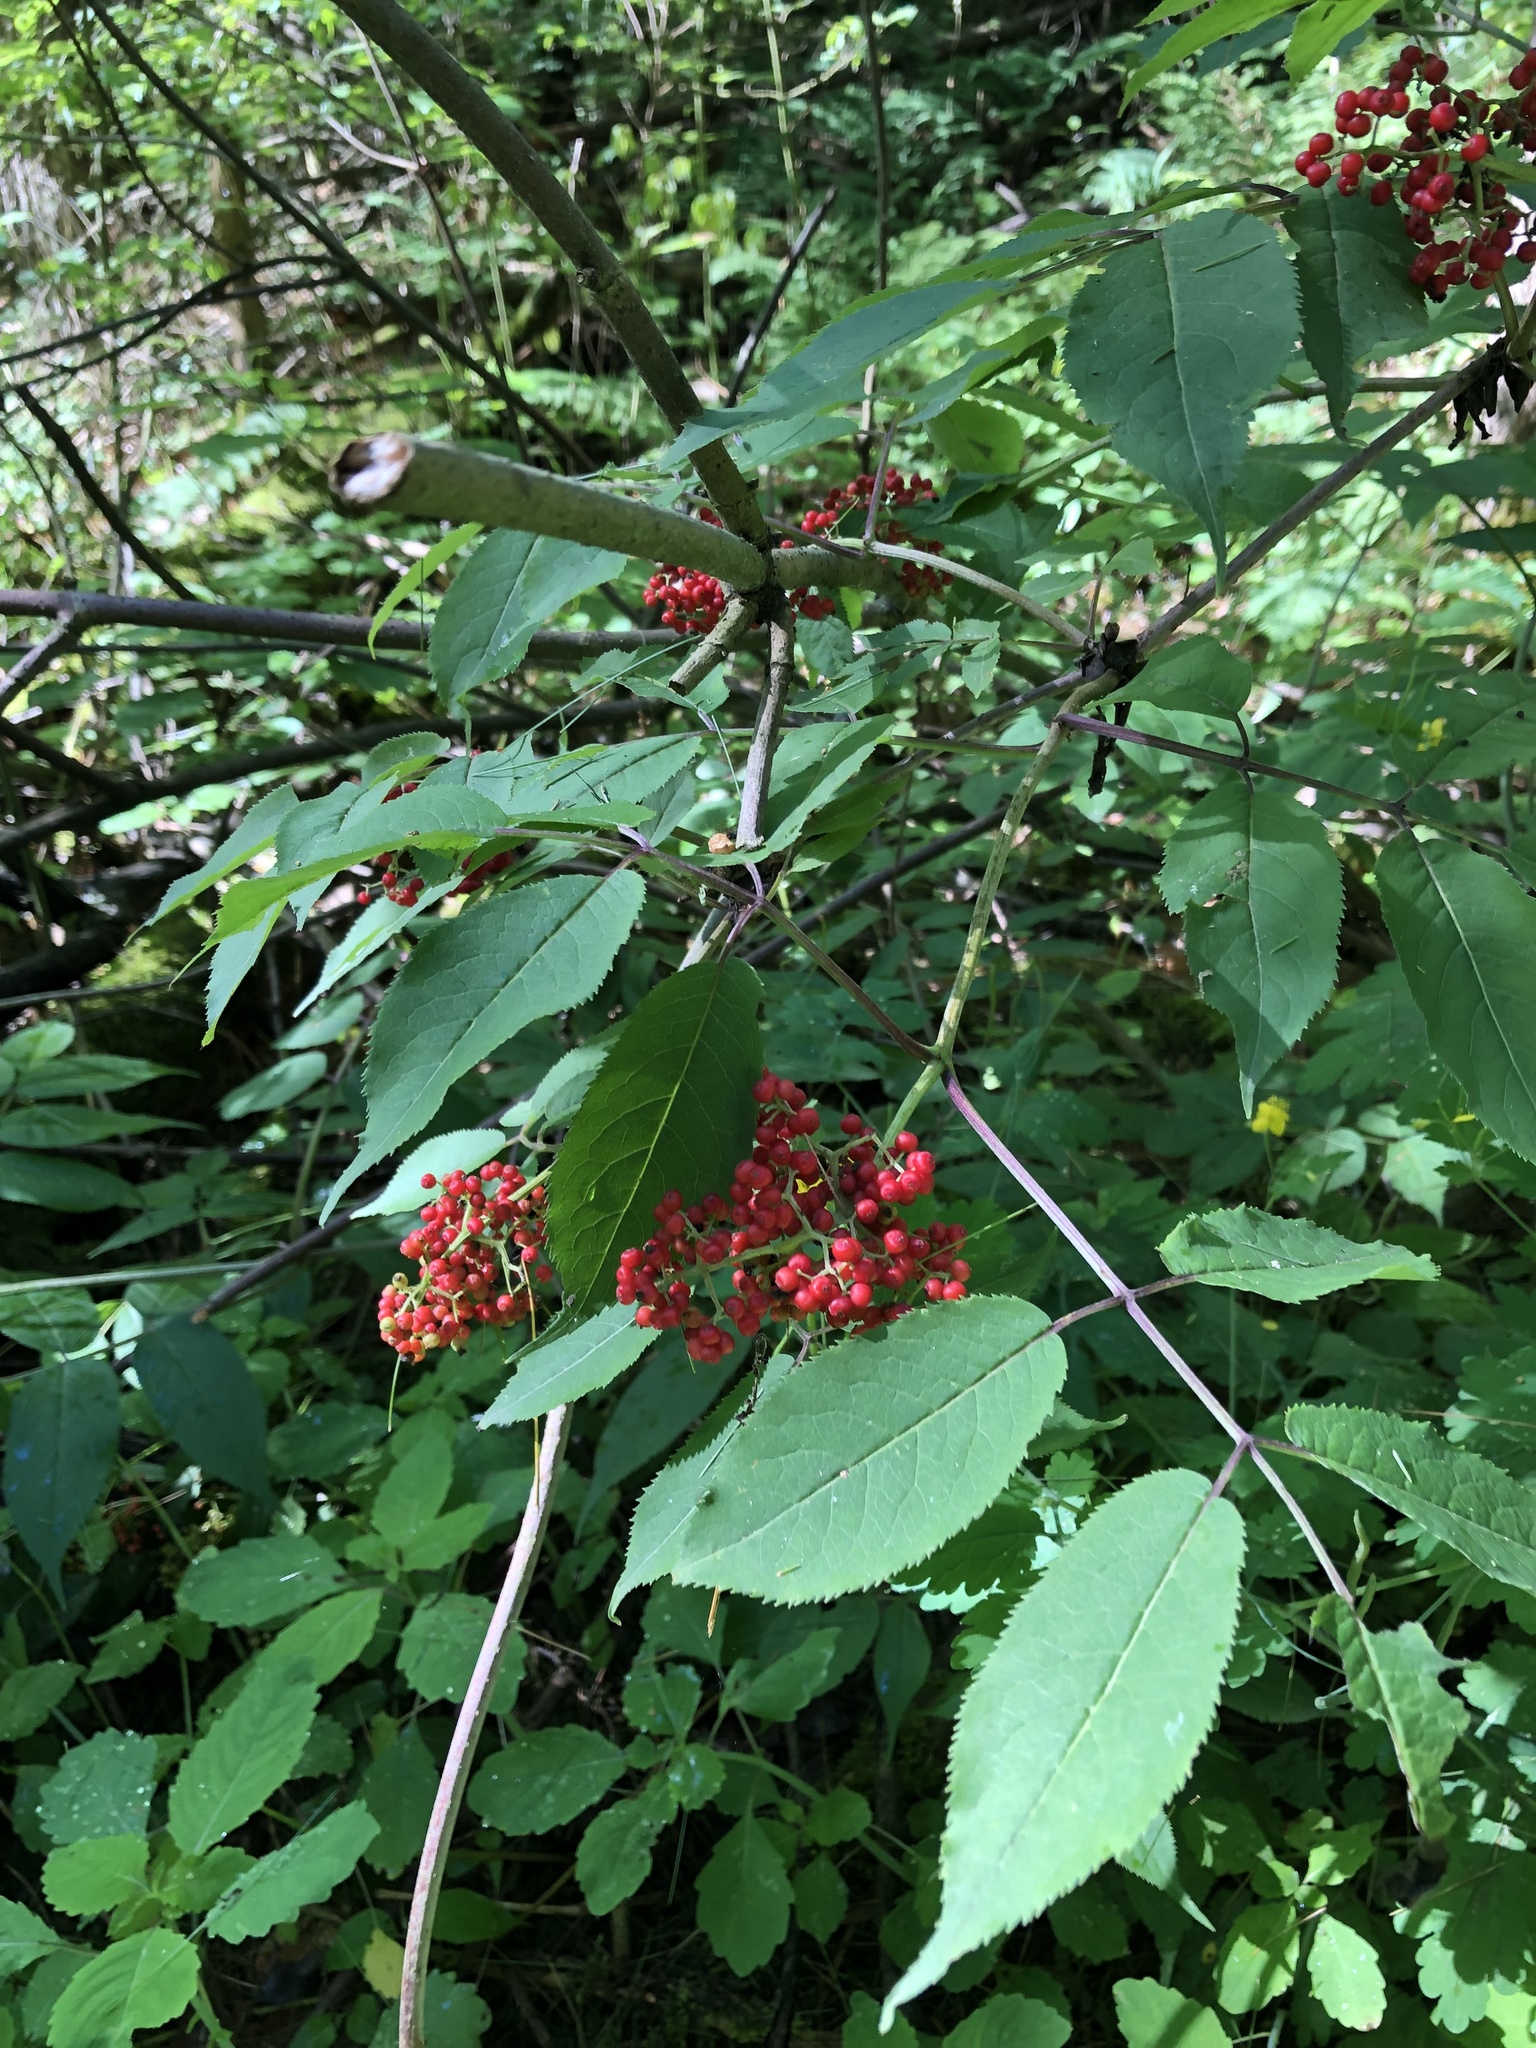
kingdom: Plantae
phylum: Tracheophyta
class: Magnoliopsida
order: Dipsacales
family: Viburnaceae
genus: Sambucus
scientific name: Sambucus racemosa
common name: Red-berried elder
